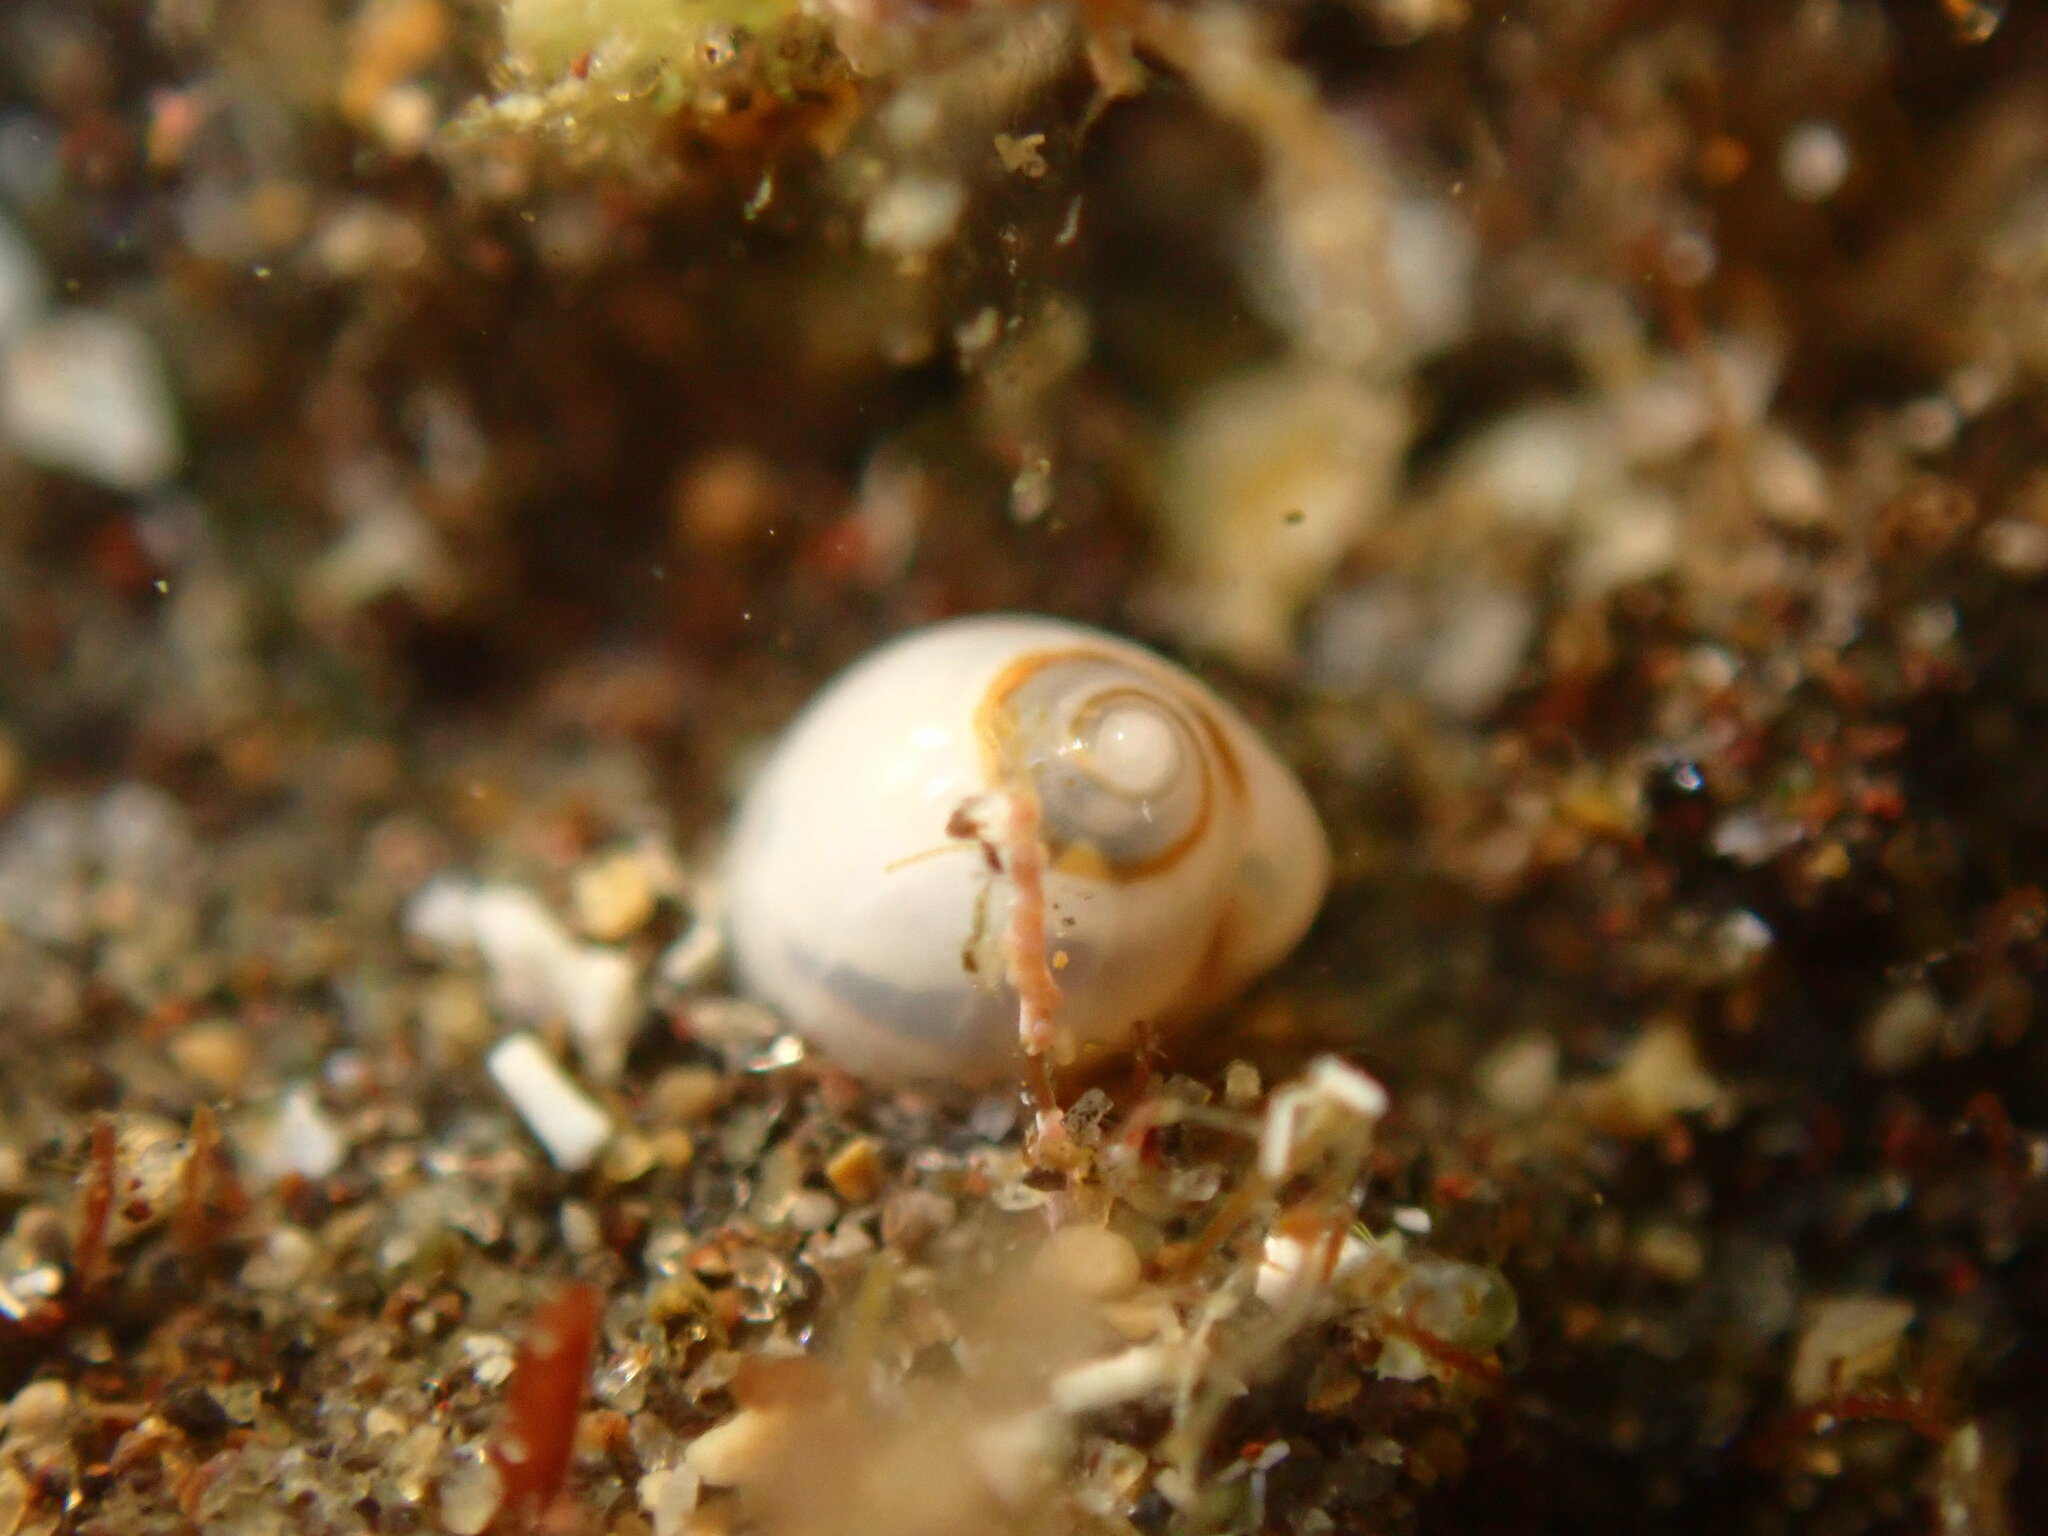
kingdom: Animalia
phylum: Mollusca
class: Gastropoda
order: Neogastropoda
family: Cystiscidae
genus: Gibberula
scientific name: Gibberula secreta
